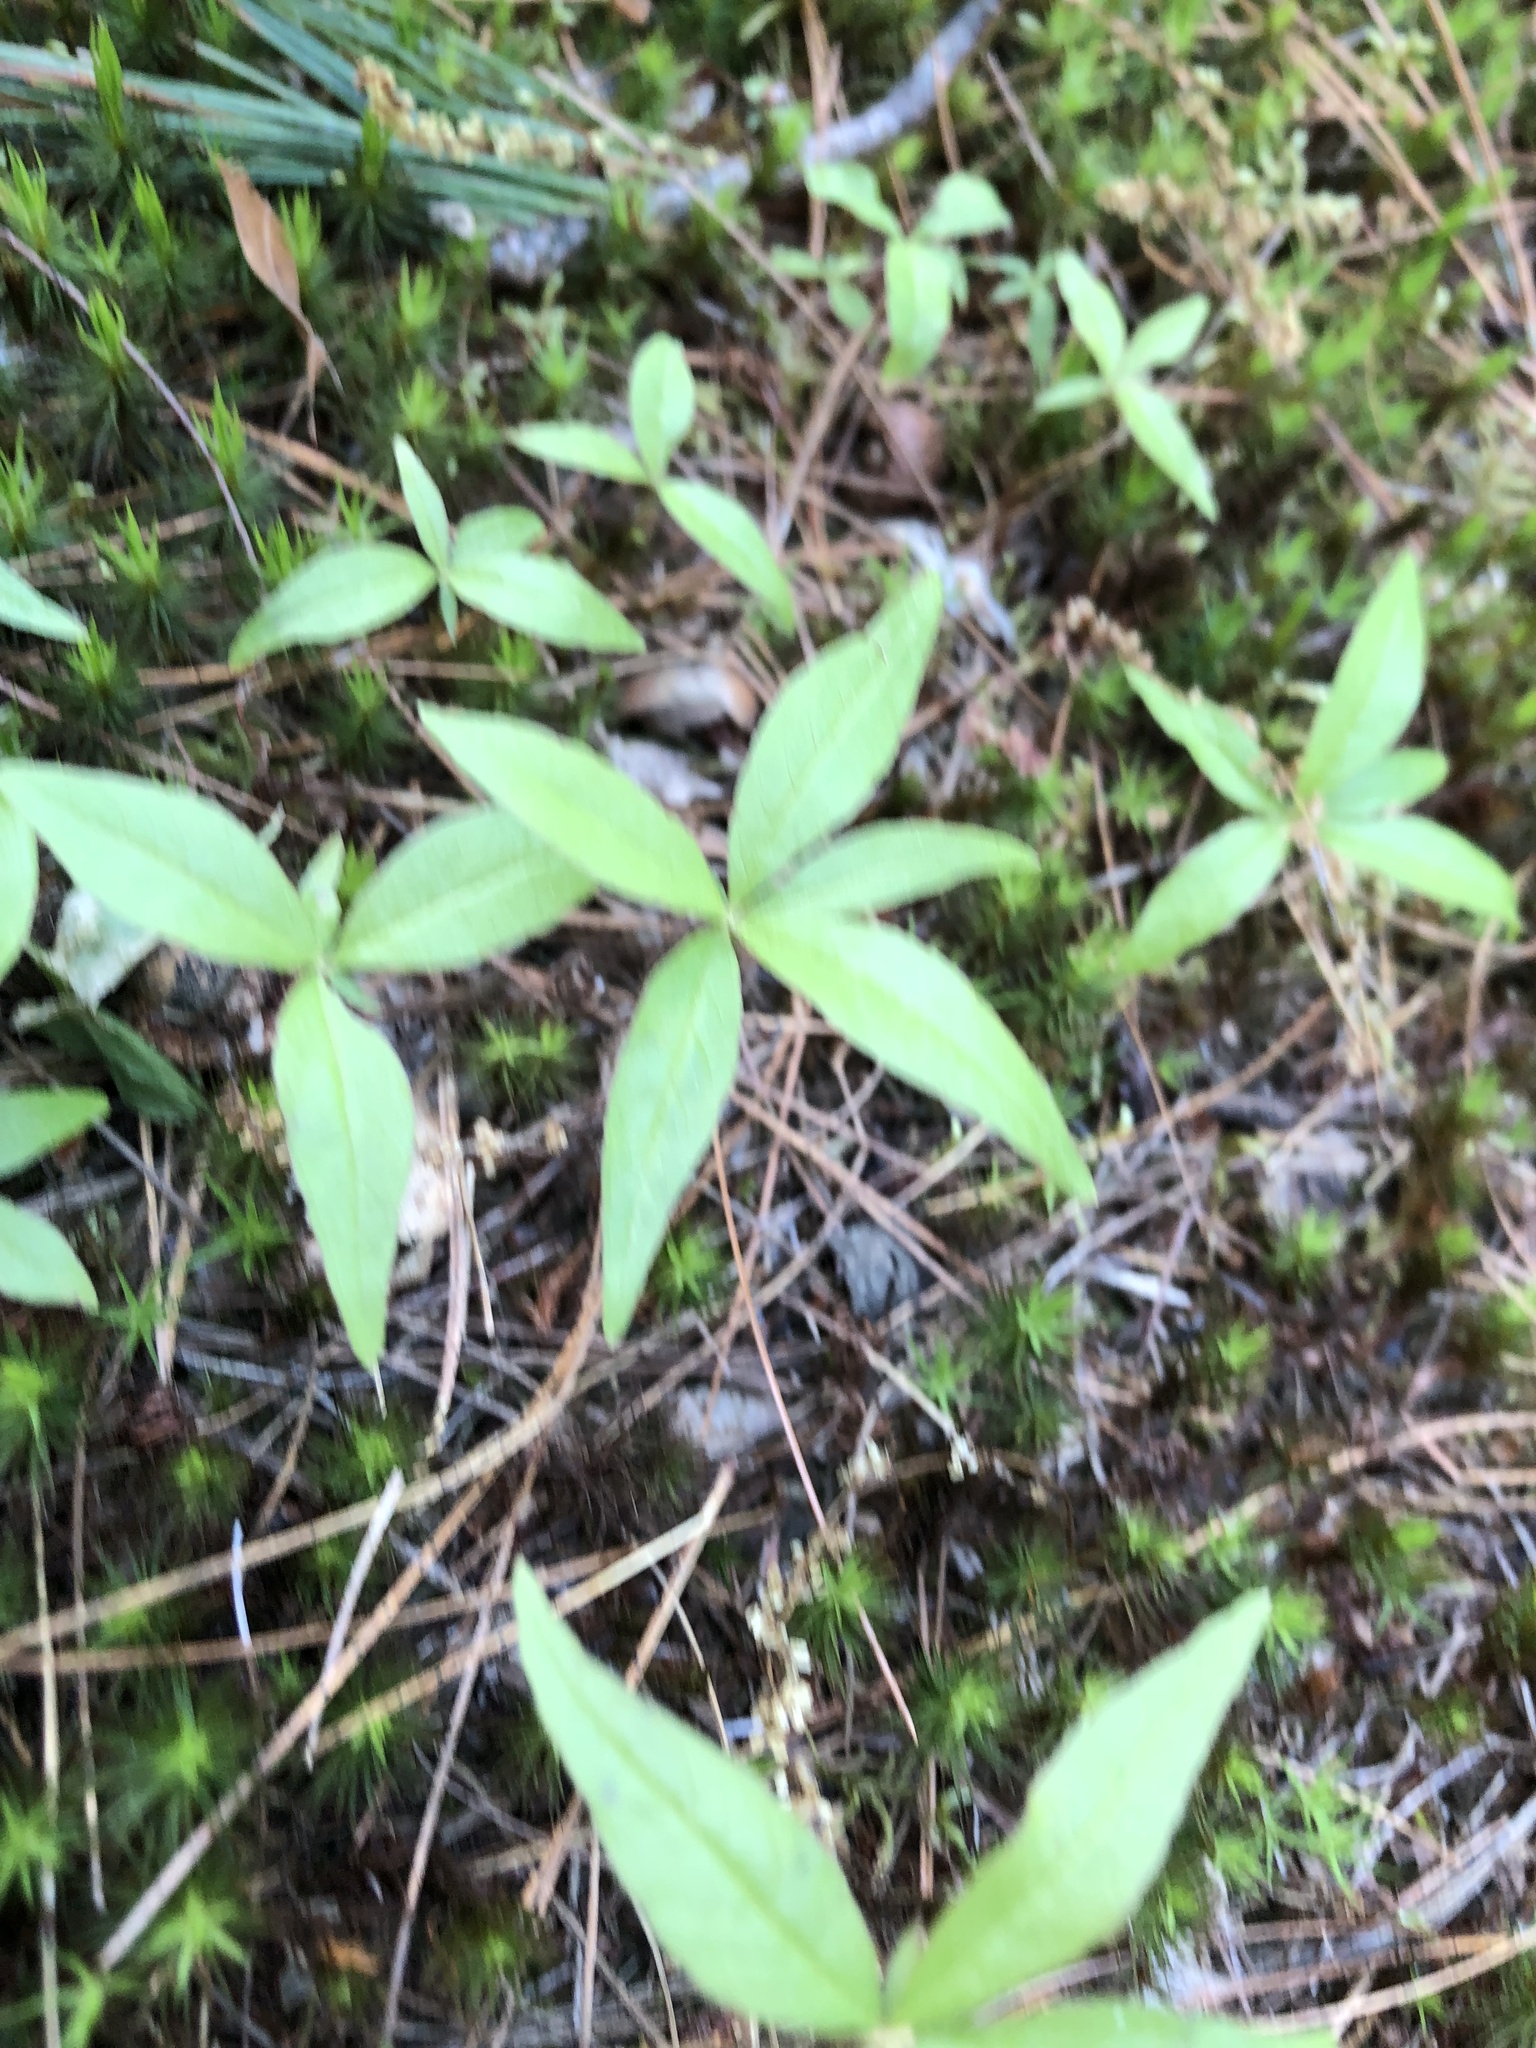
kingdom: Plantae
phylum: Tracheophyta
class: Magnoliopsida
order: Ericales
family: Primulaceae
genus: Lysimachia
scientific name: Lysimachia borealis
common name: American starflower
